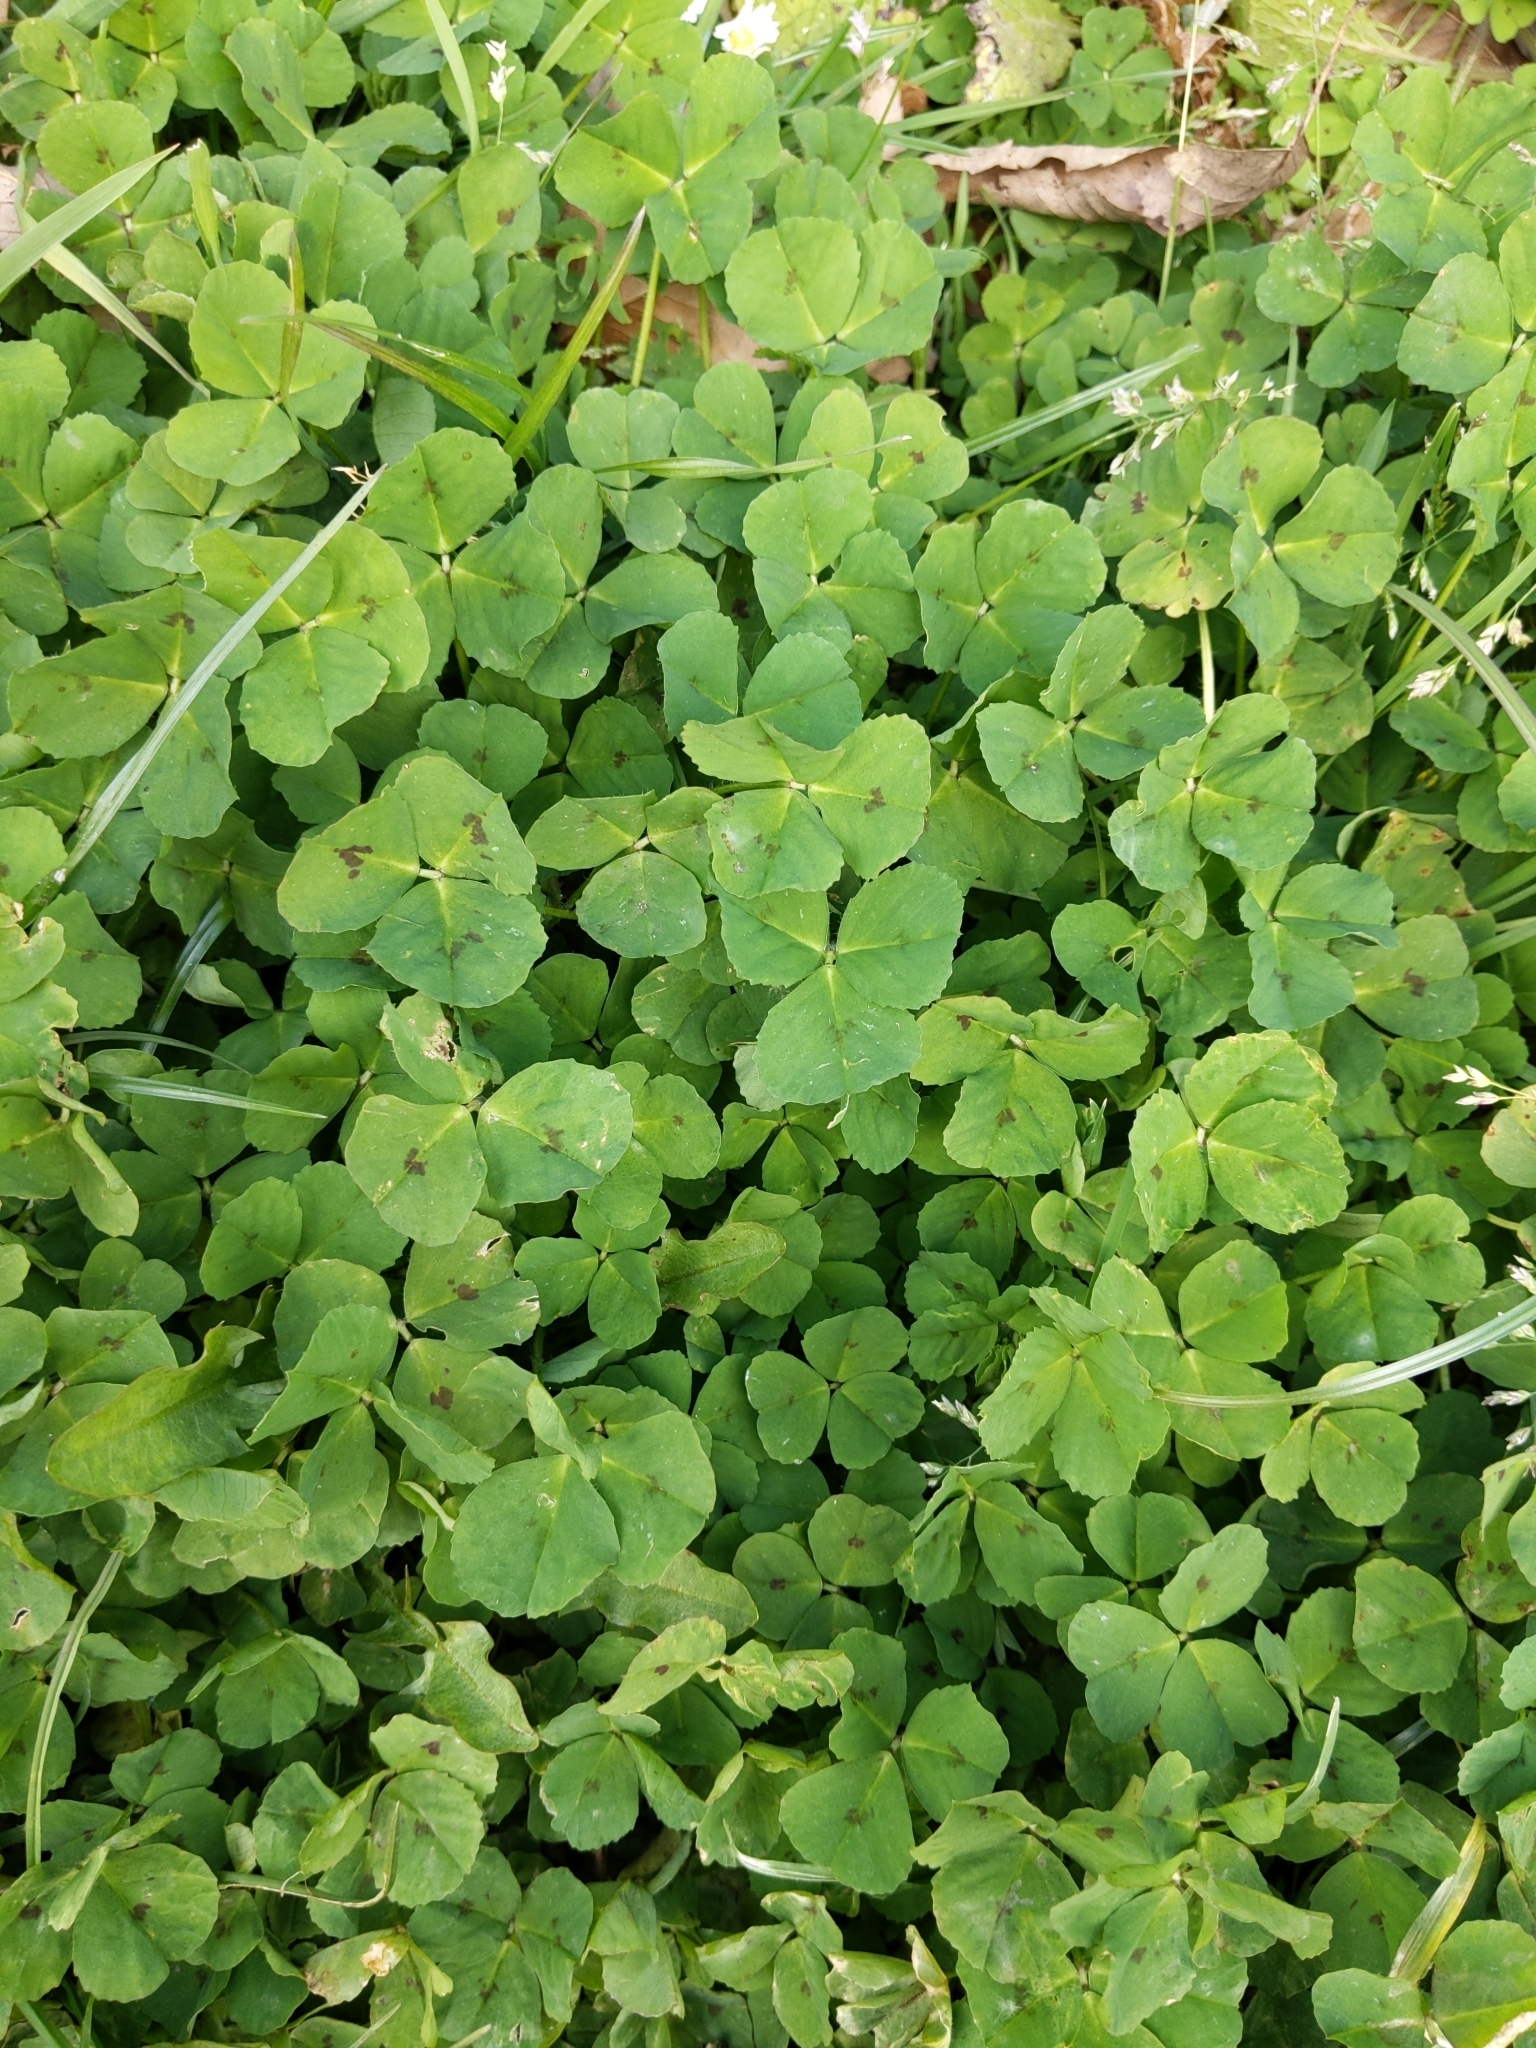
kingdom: Plantae
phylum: Tracheophyta
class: Magnoliopsida
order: Fabales
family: Fabaceae
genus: Medicago
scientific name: Medicago arabica
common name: Spotted medick
